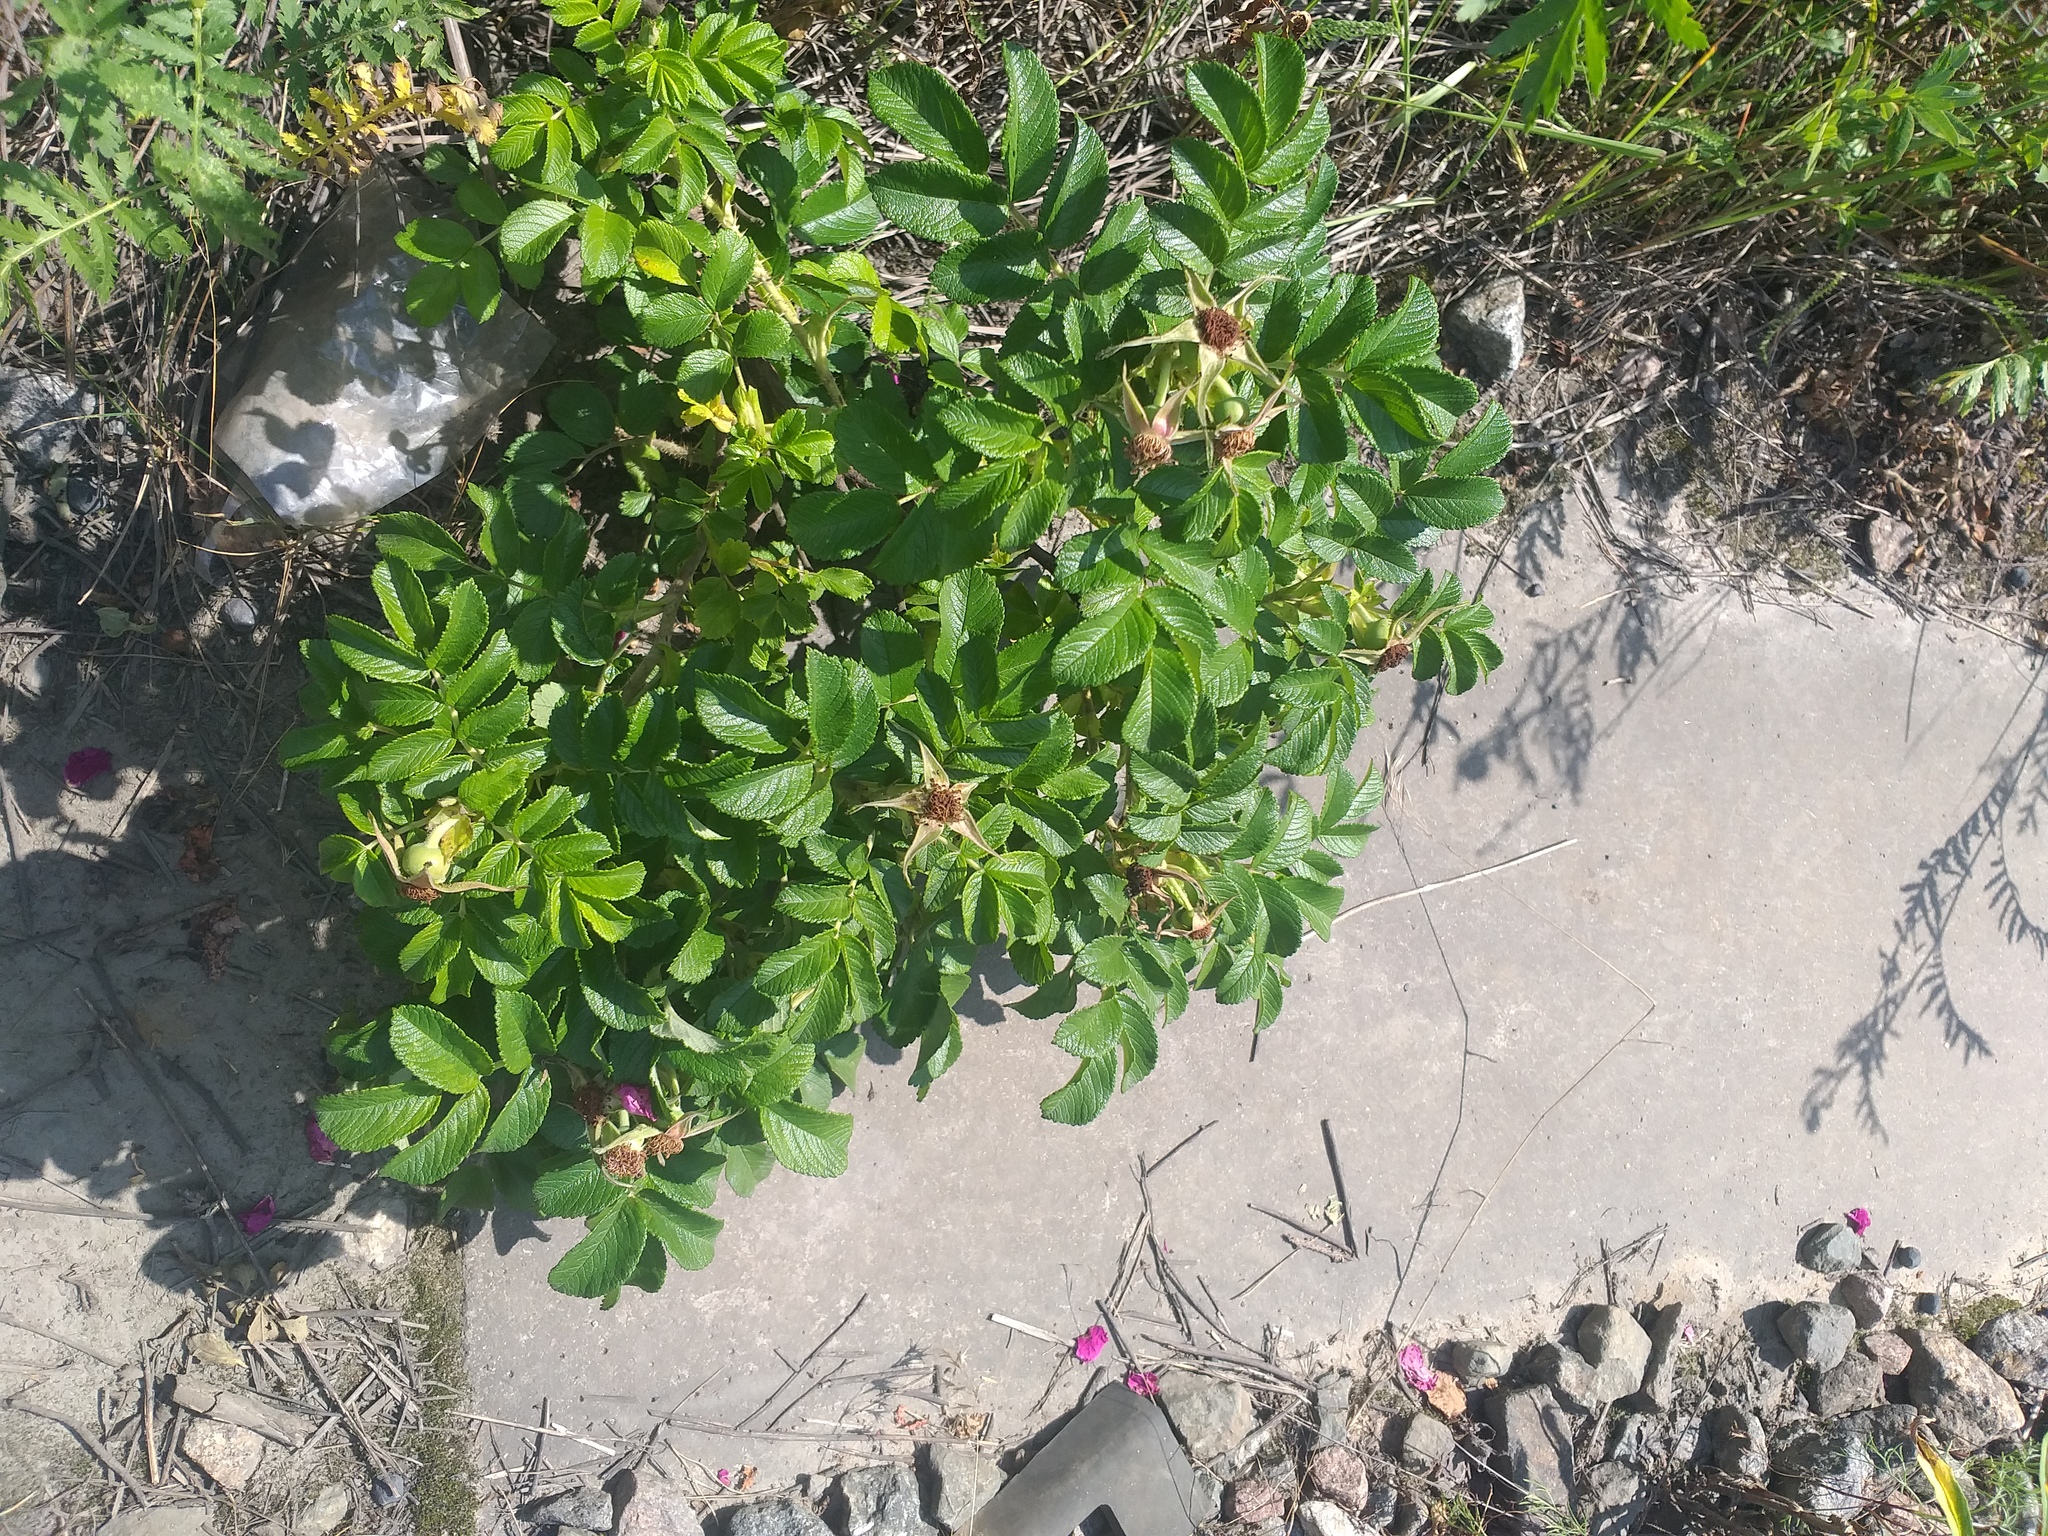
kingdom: Plantae
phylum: Tracheophyta
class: Magnoliopsida
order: Rosales
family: Rosaceae
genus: Rosa
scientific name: Rosa rugosa
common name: Japanese rose
